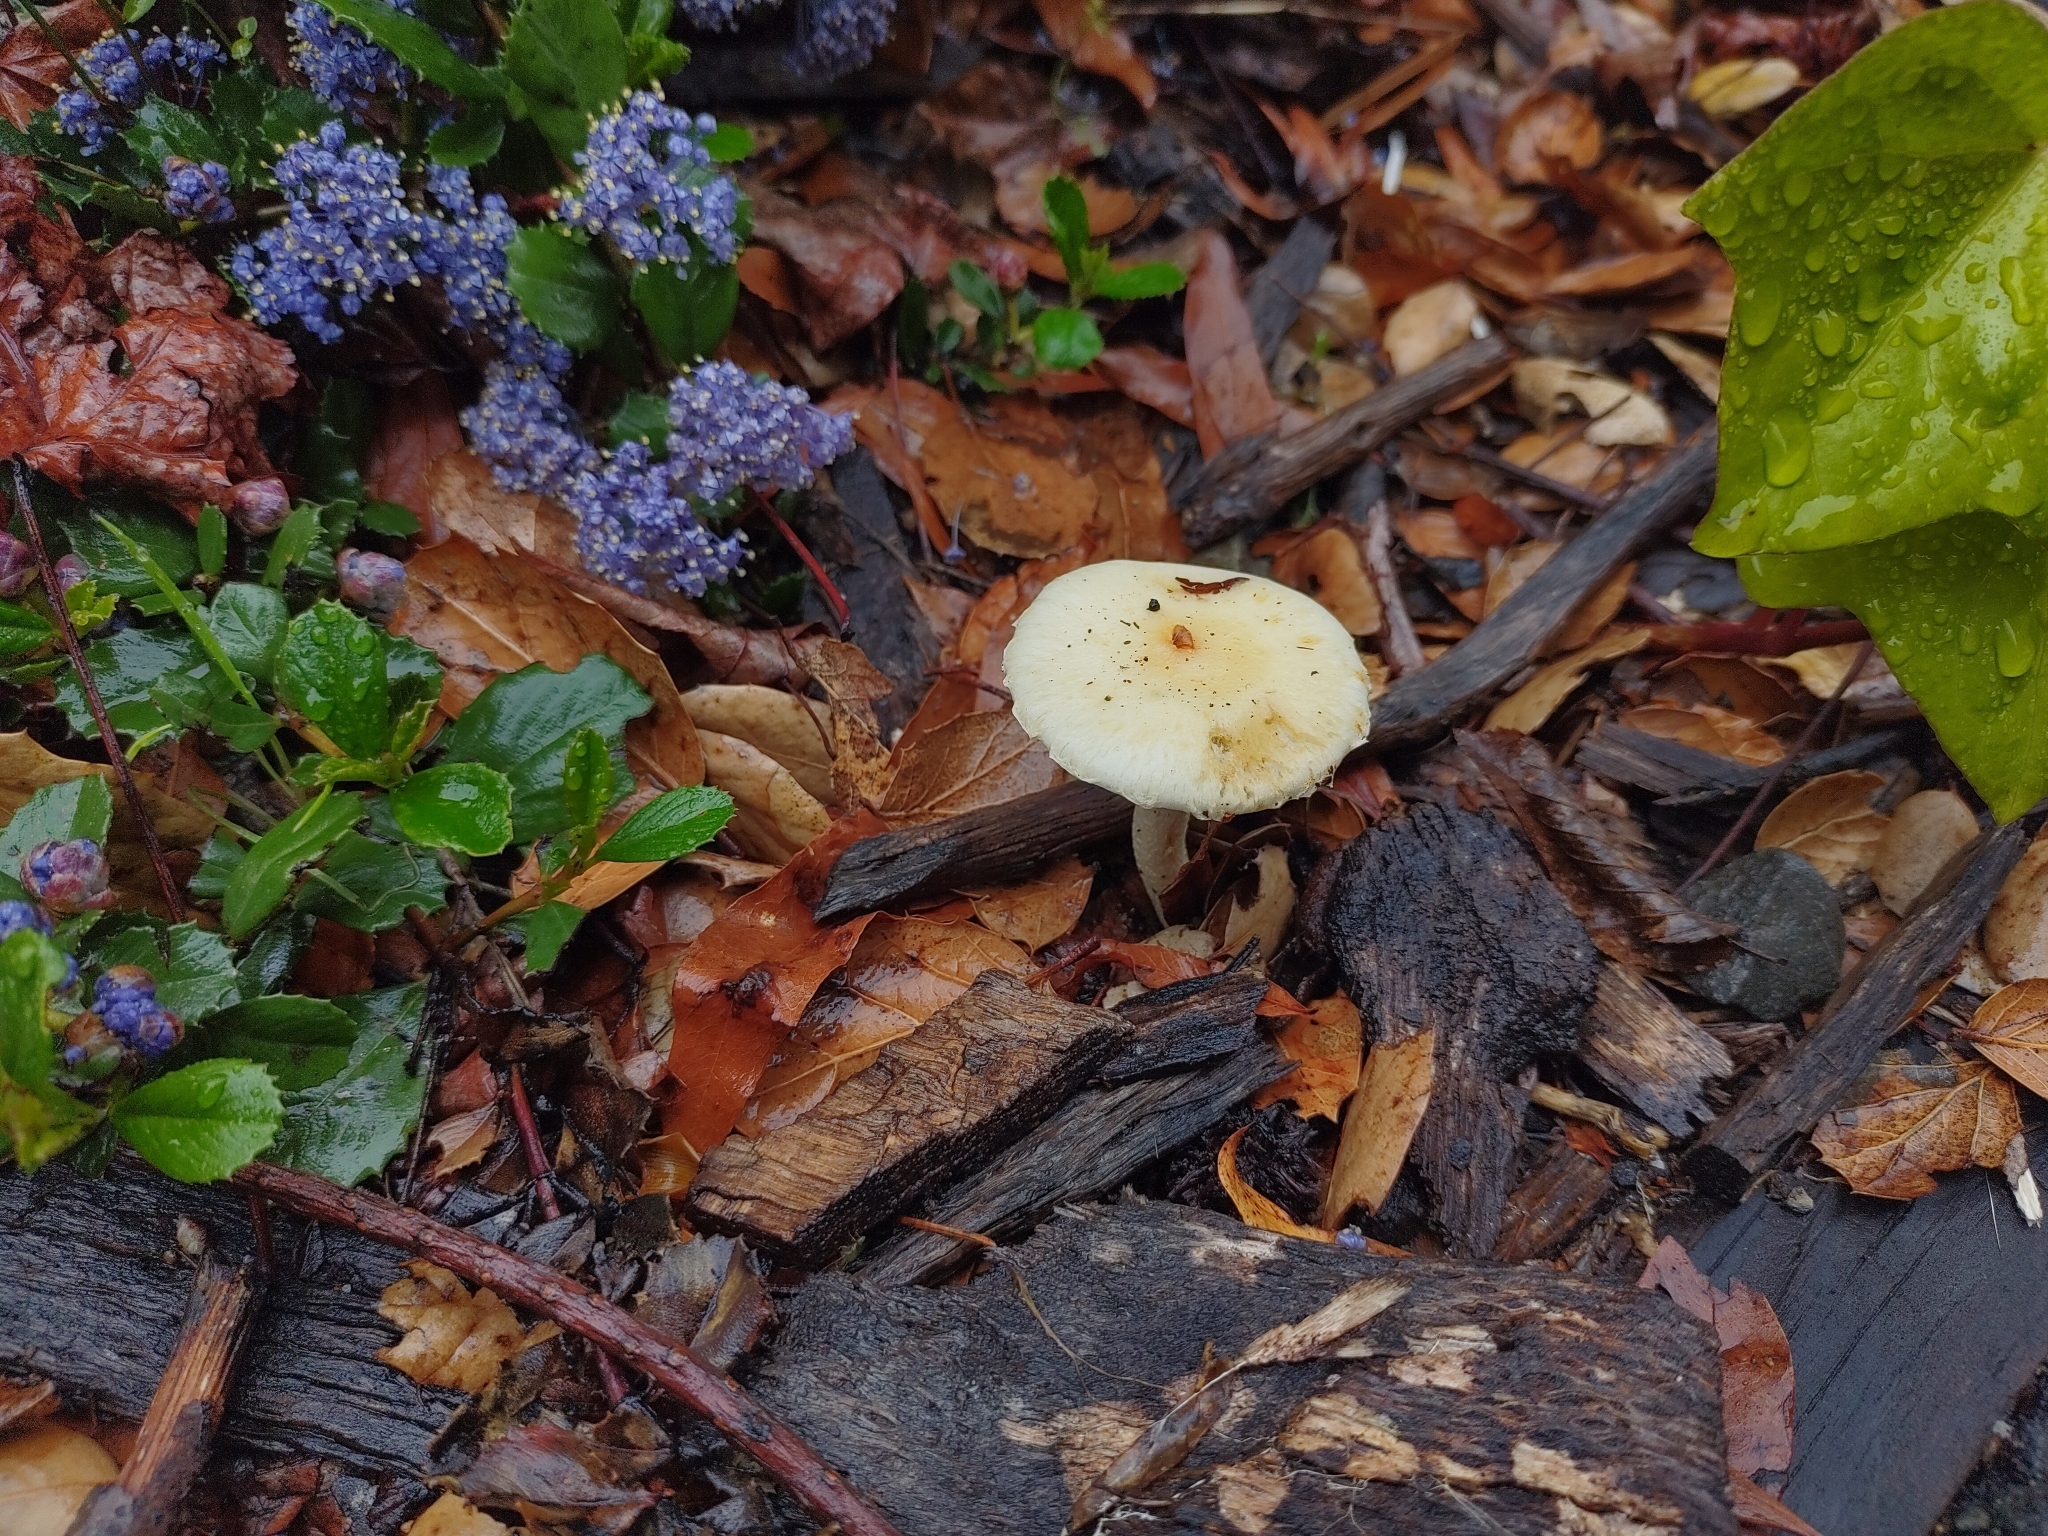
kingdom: Fungi
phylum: Basidiomycota
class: Agaricomycetes
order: Agaricales
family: Strophariaceae
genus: Leratiomyces
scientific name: Leratiomyces percevalii
